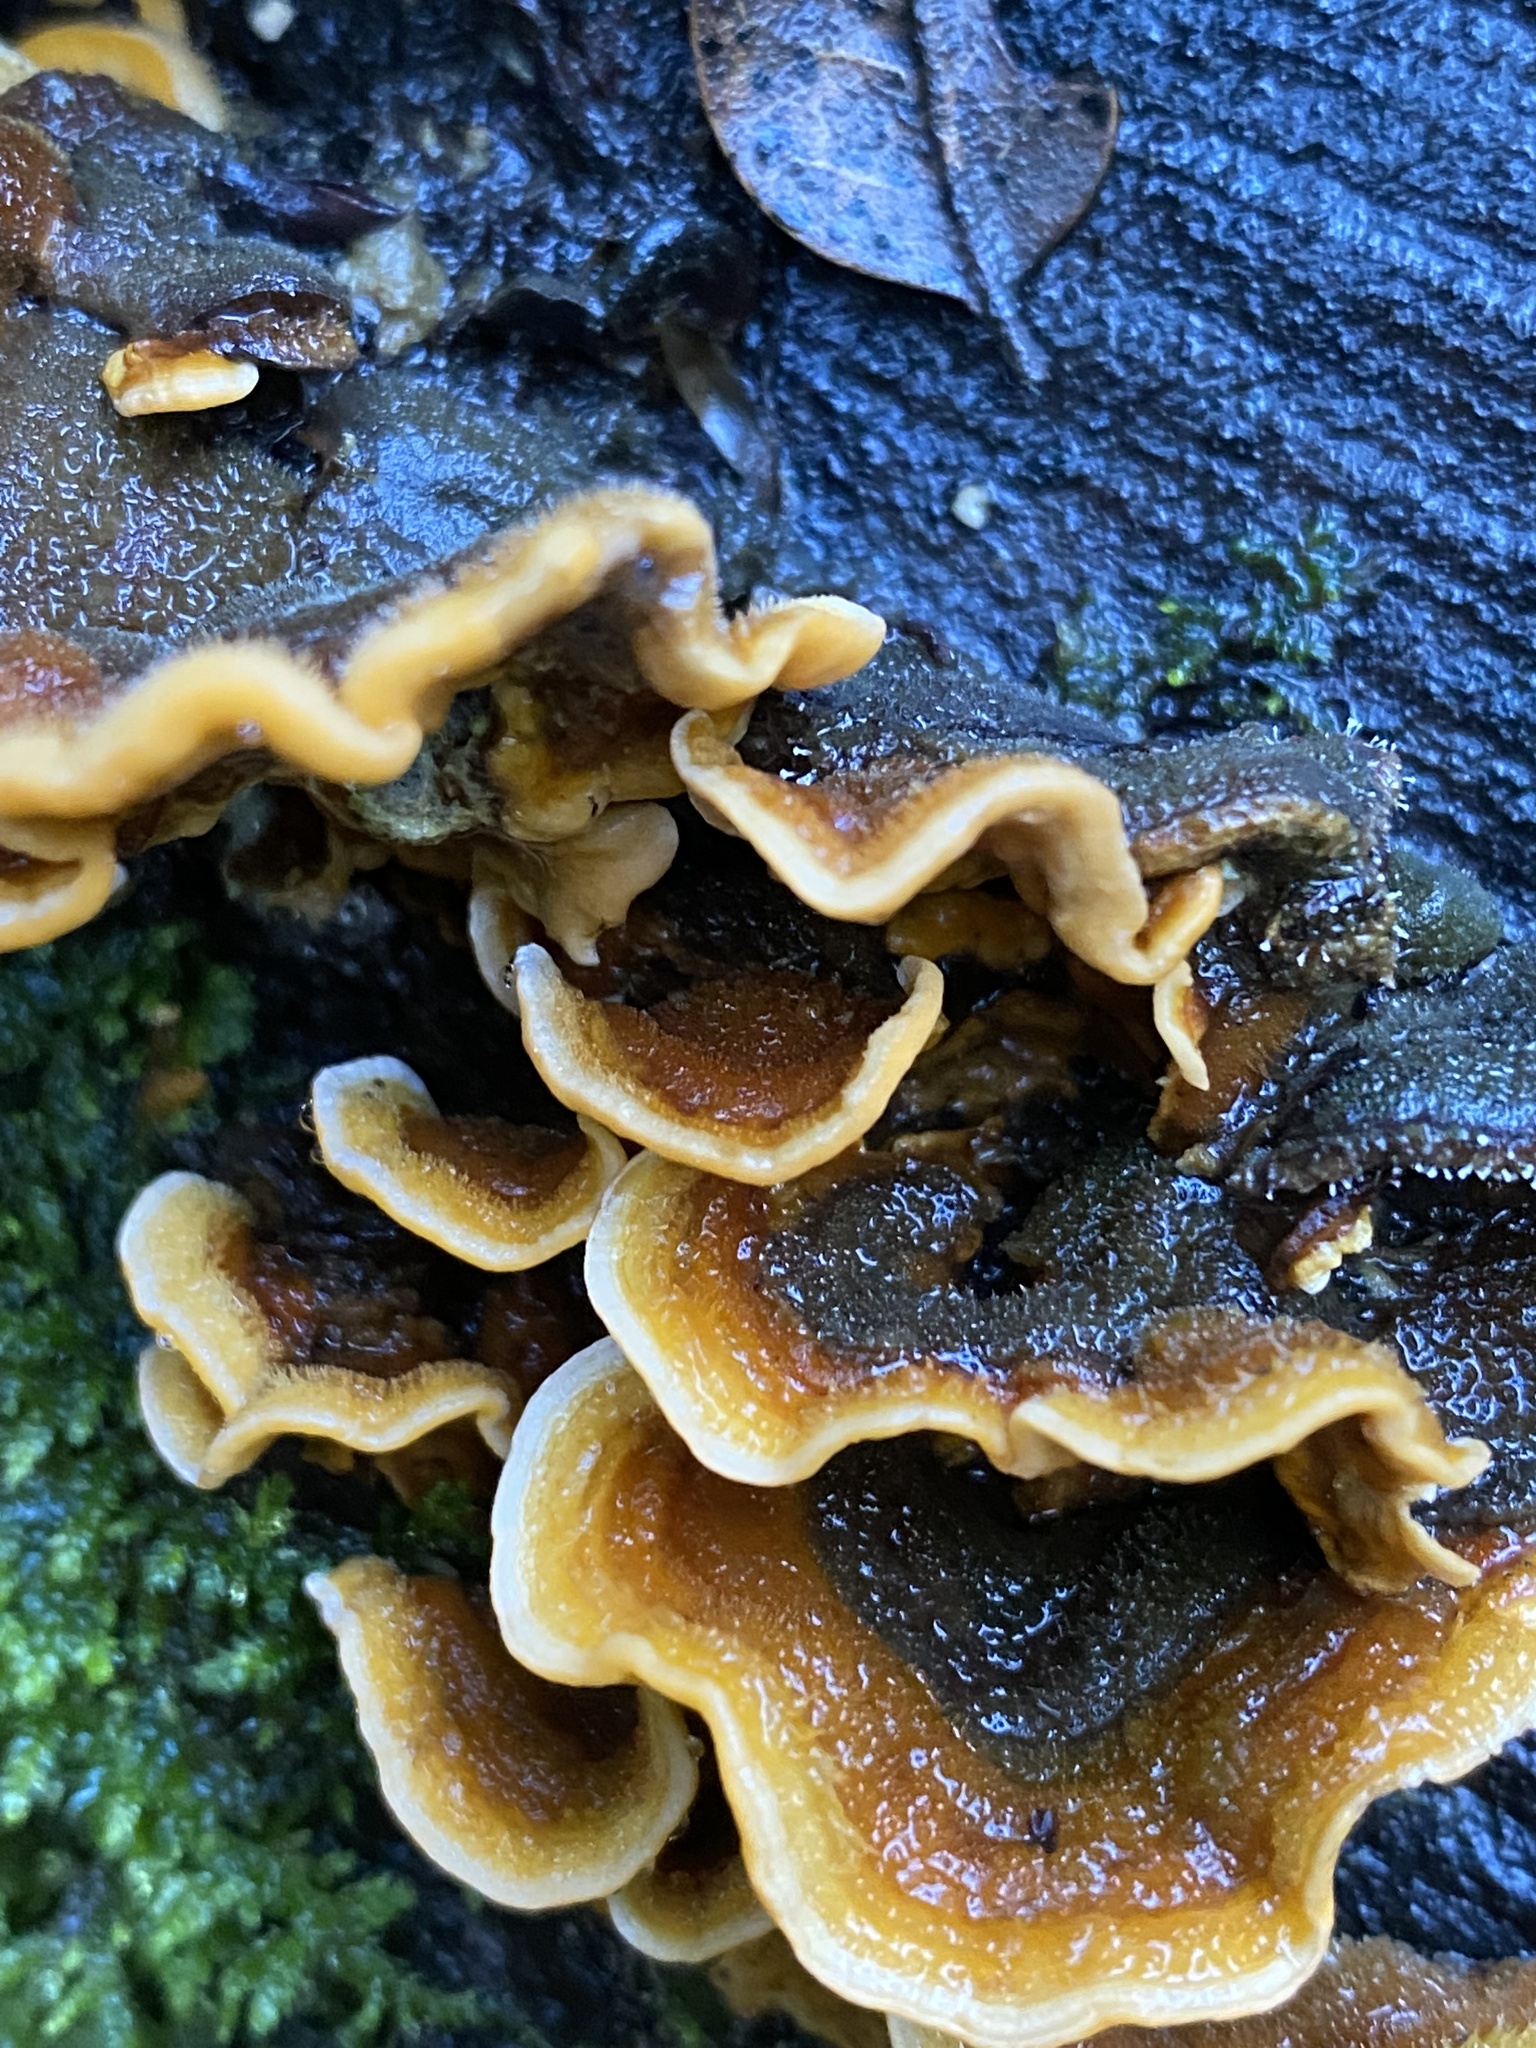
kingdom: Fungi
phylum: Basidiomycota
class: Agaricomycetes
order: Russulales
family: Stereaceae
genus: Stereum
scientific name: Stereum hirsutum
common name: Hairy curtain crust
